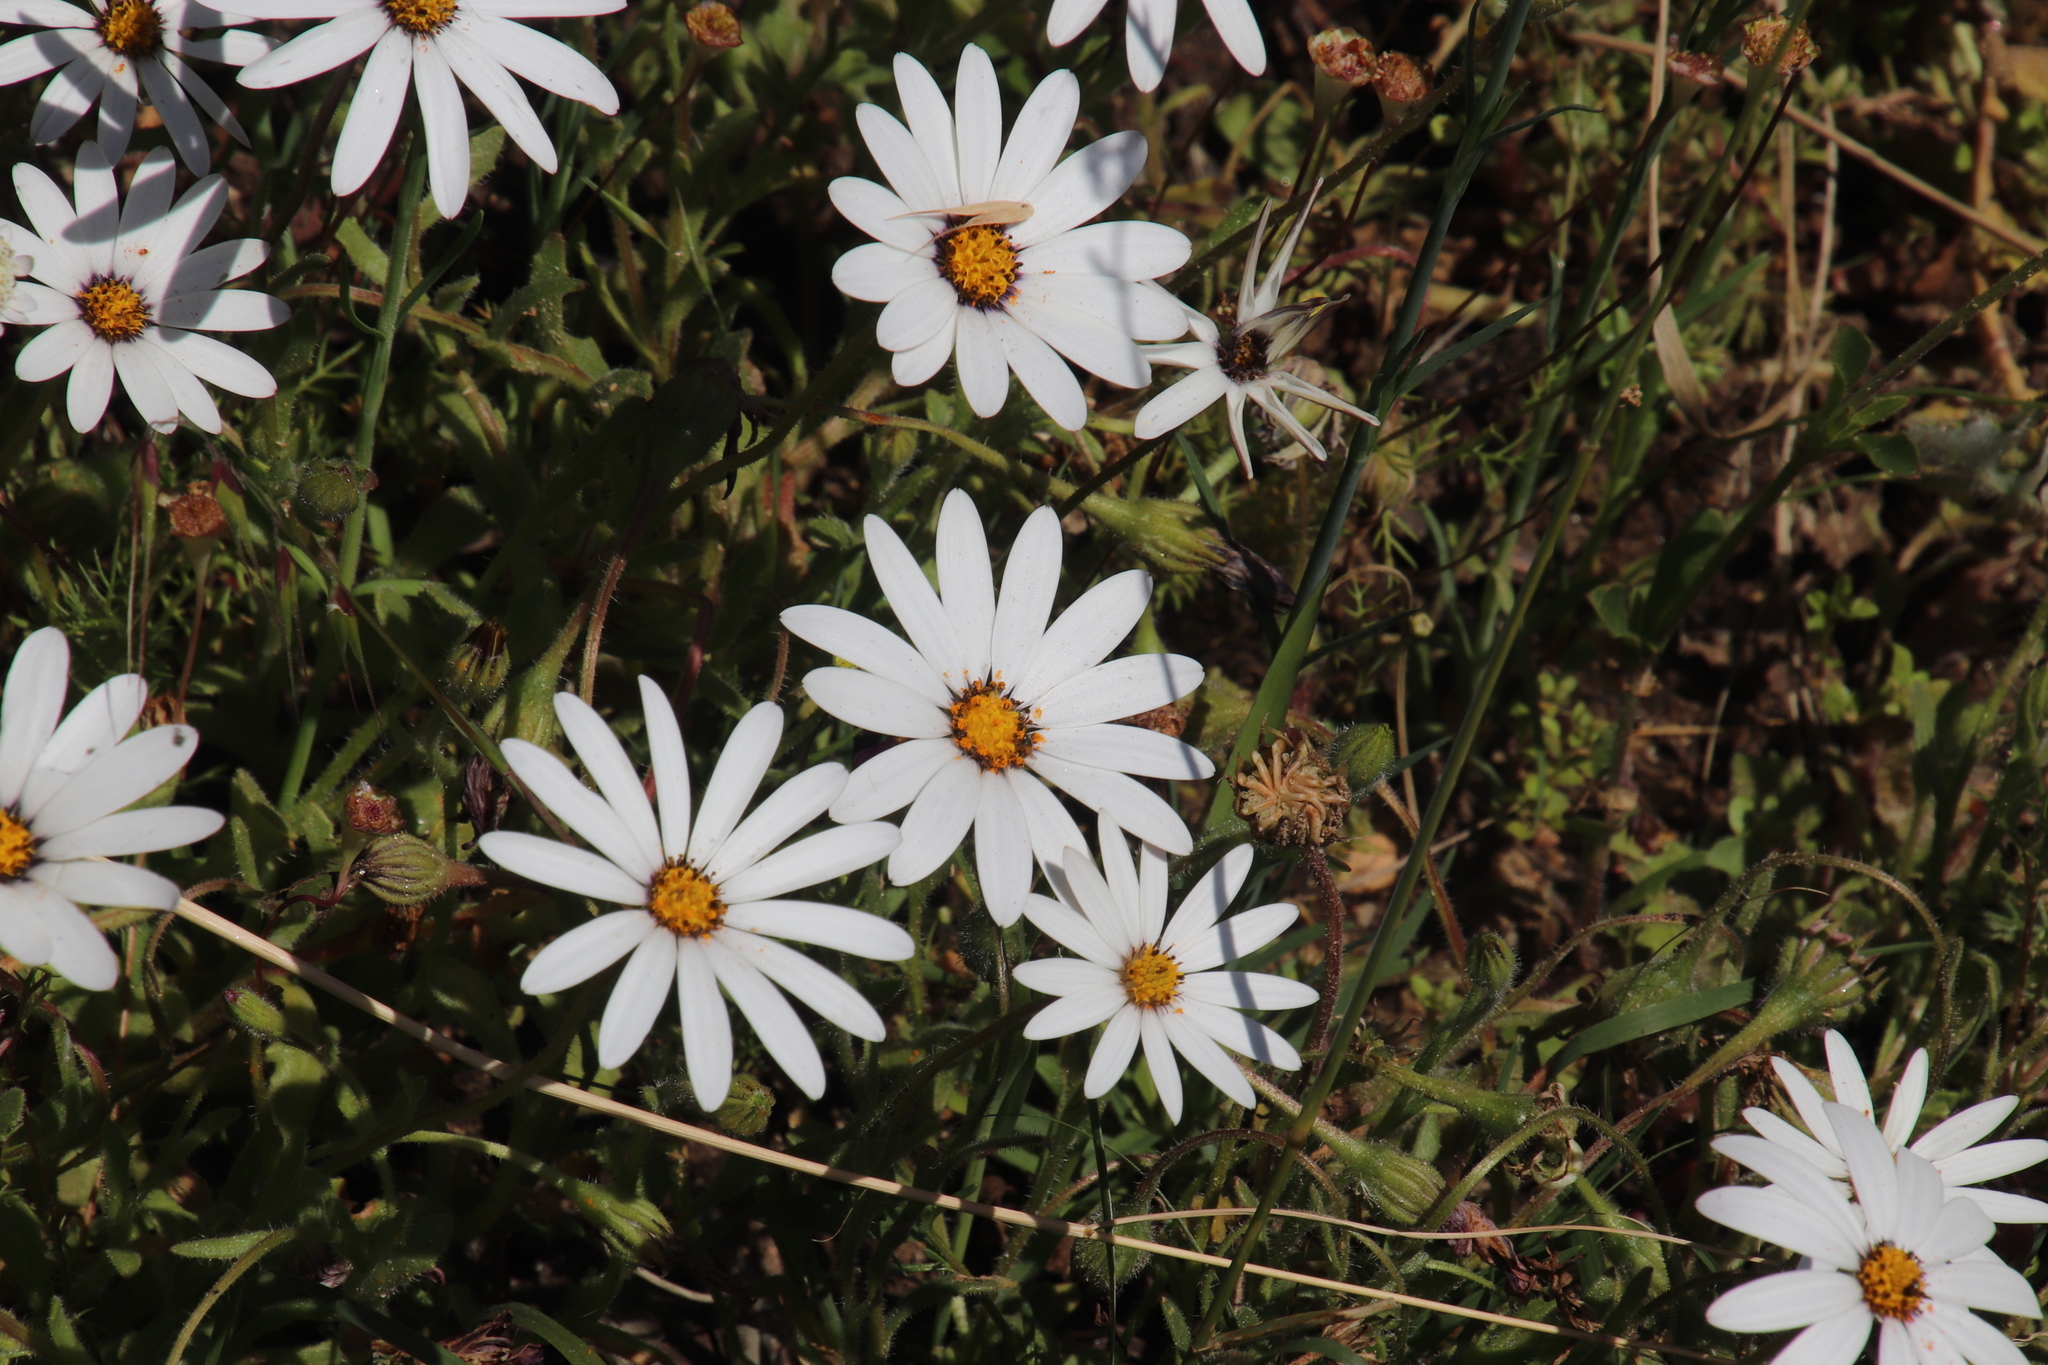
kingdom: Plantae
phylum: Tracheophyta
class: Magnoliopsida
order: Asterales
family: Asteraceae
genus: Dimorphotheca
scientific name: Dimorphotheca pluvialis
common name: Weather prophet
